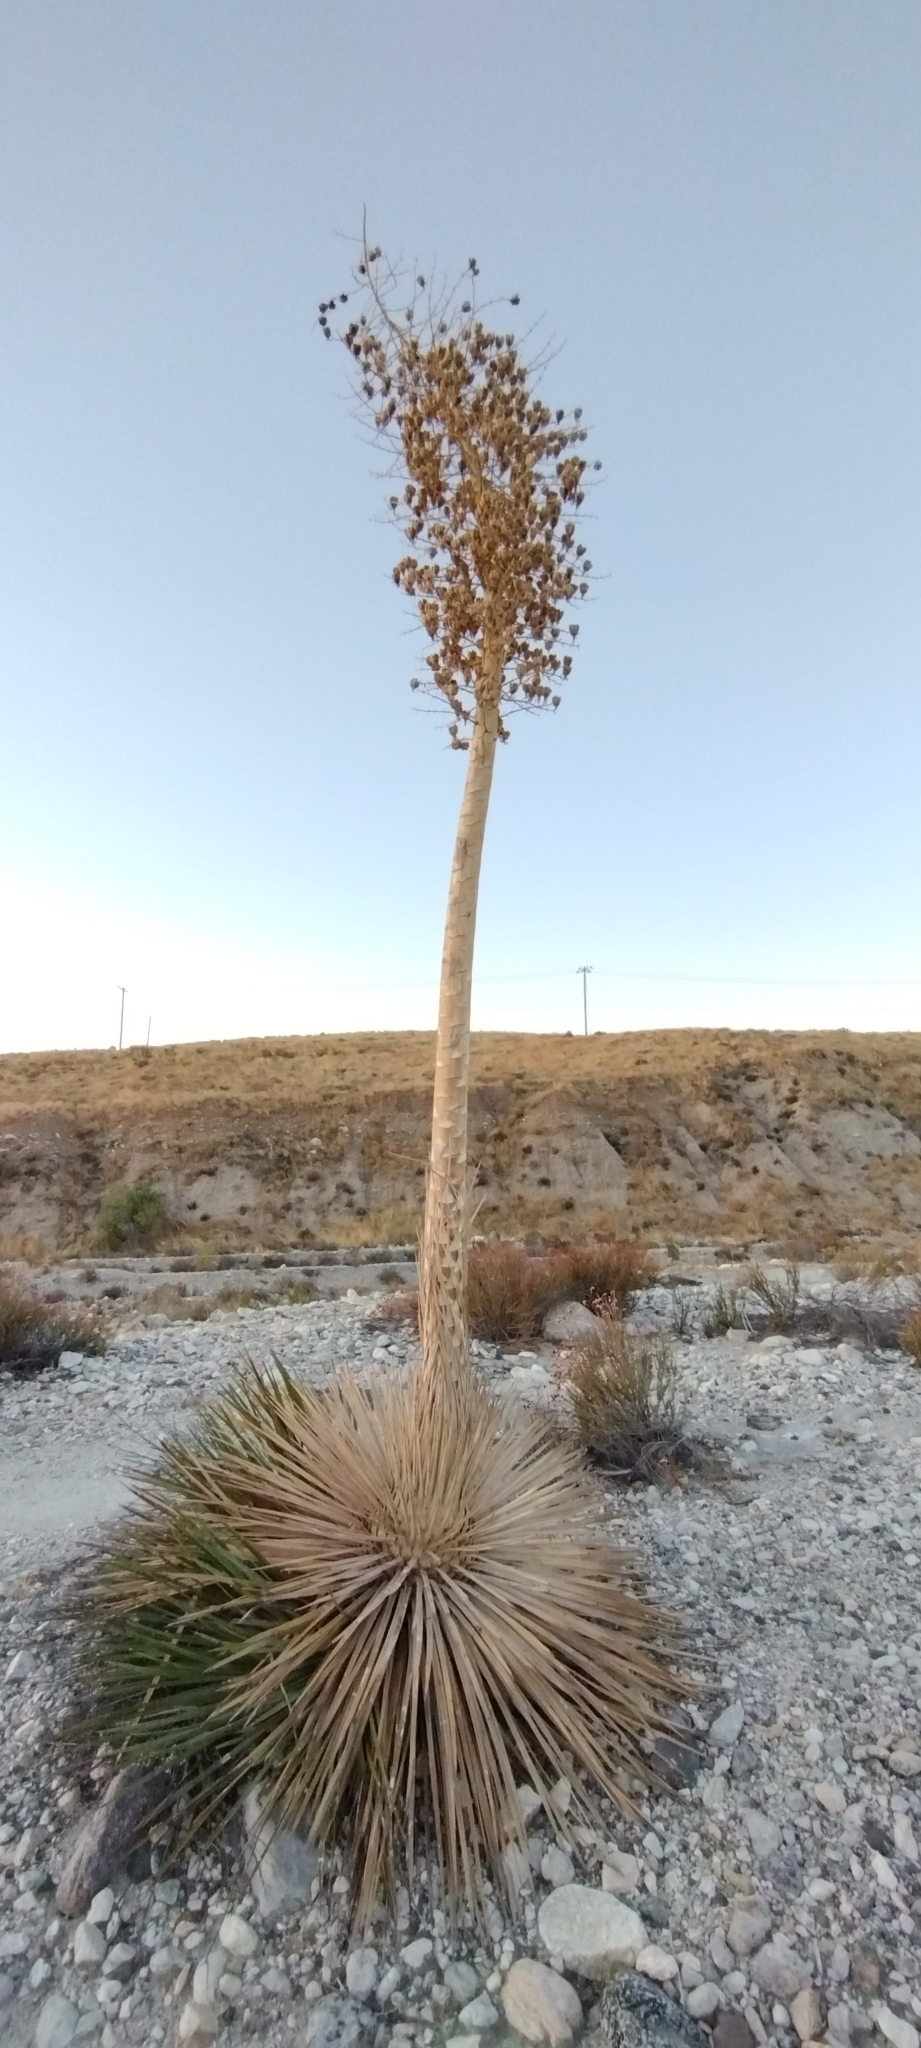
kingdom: Plantae
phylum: Tracheophyta
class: Liliopsida
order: Asparagales
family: Asparagaceae
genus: Hesperoyucca
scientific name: Hesperoyucca whipplei
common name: Our lord's-candle
